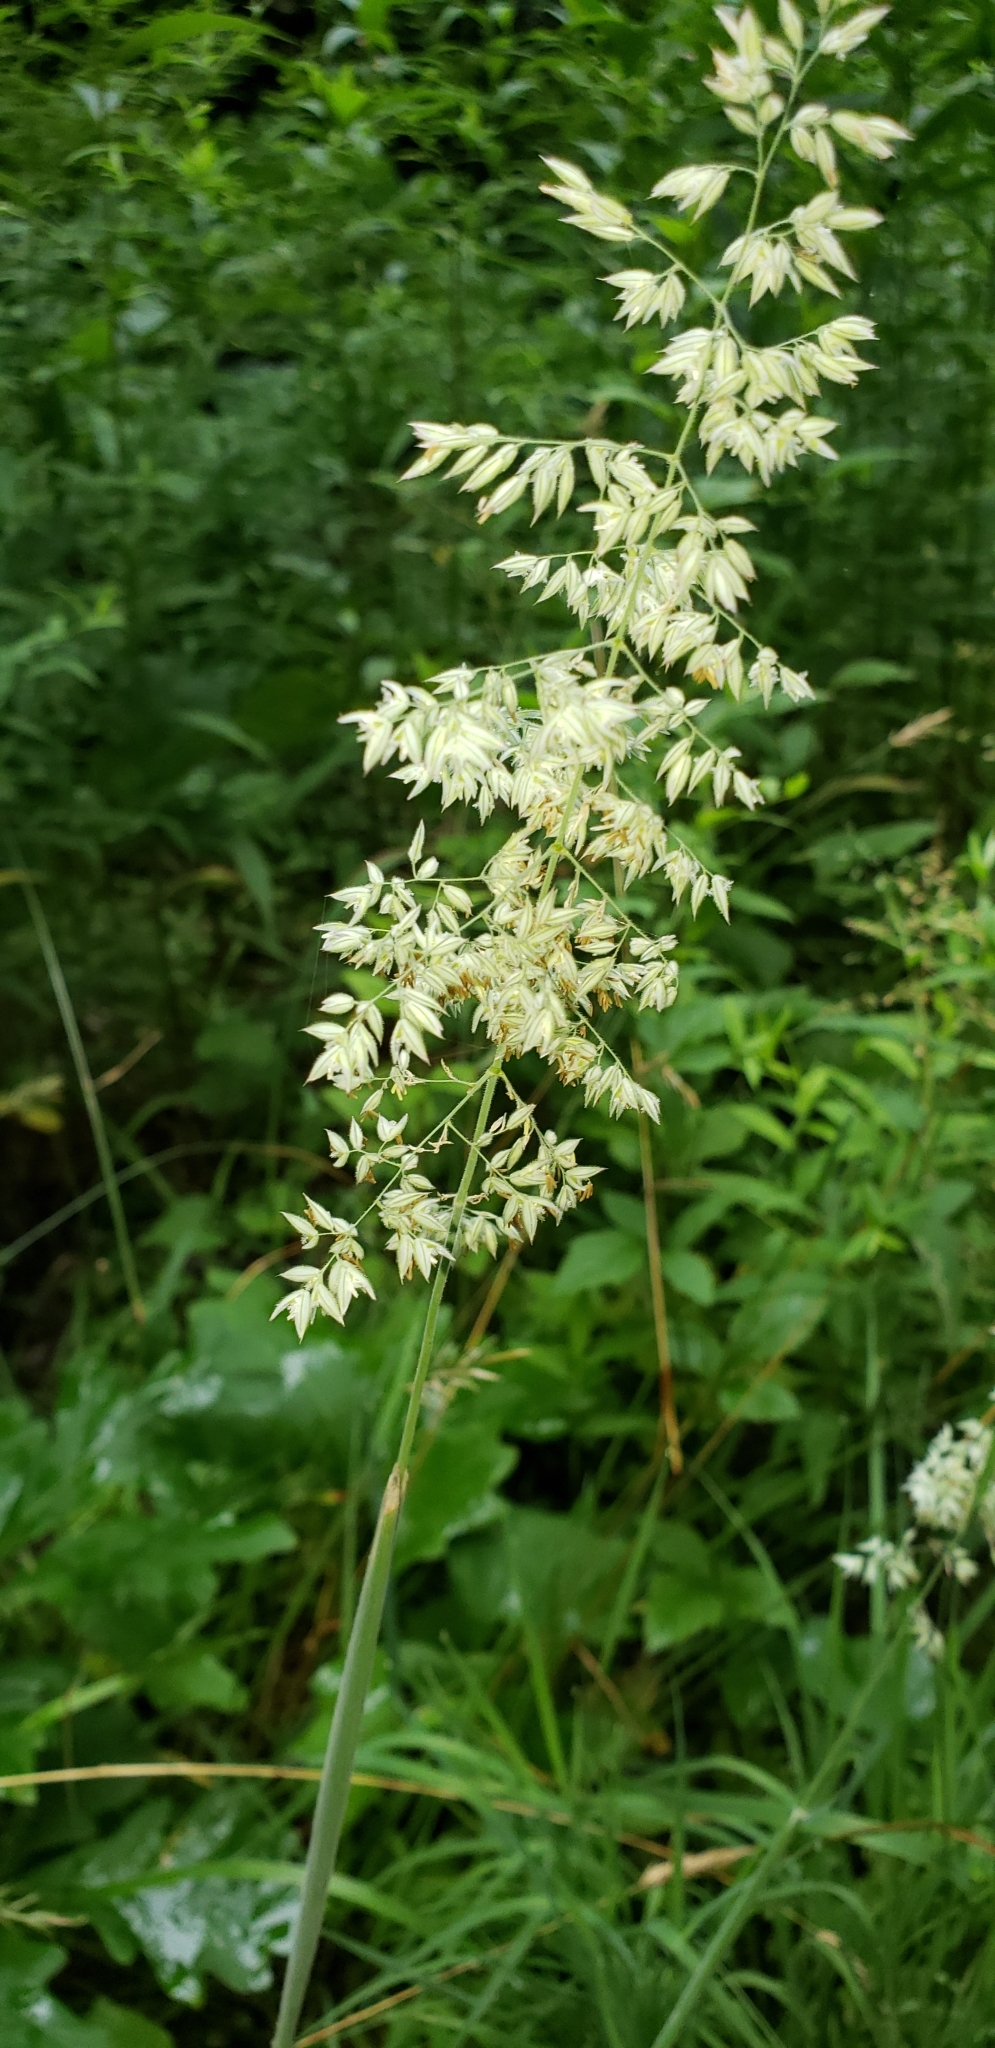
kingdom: Plantae
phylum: Tracheophyta
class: Liliopsida
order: Poales
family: Poaceae
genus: Holcus
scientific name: Holcus lanatus
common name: Yorkshire-fog
